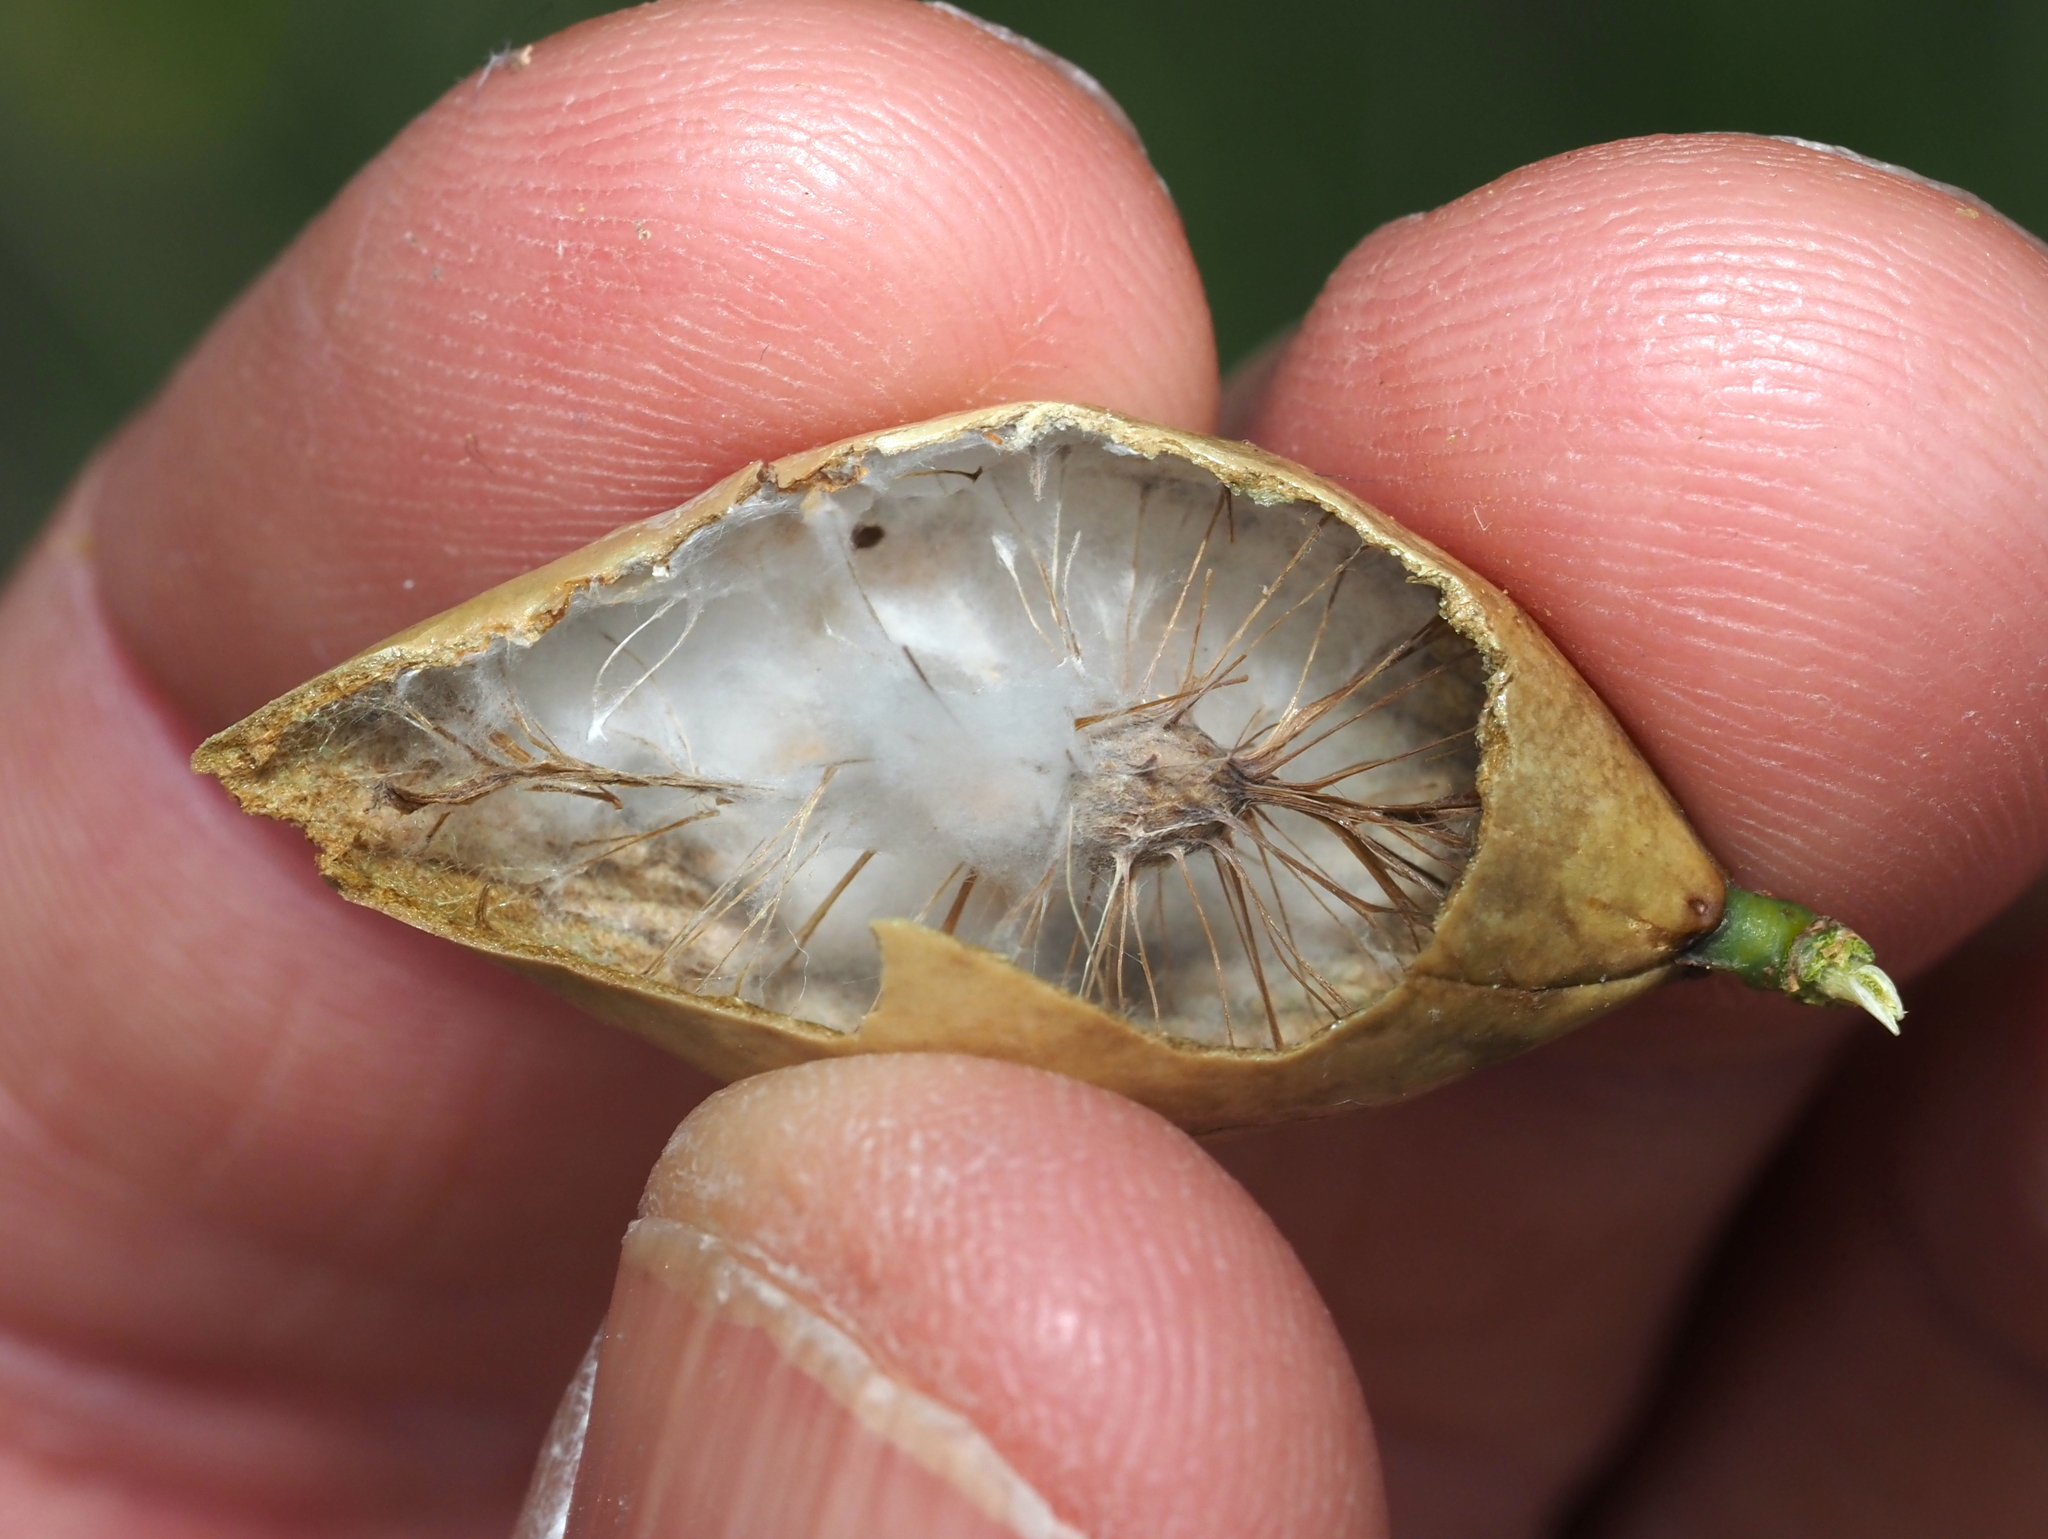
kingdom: Animalia
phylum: Arthropoda
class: Insecta
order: Hymenoptera
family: Cynipidae
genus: Amphibolips
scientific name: Amphibolips
